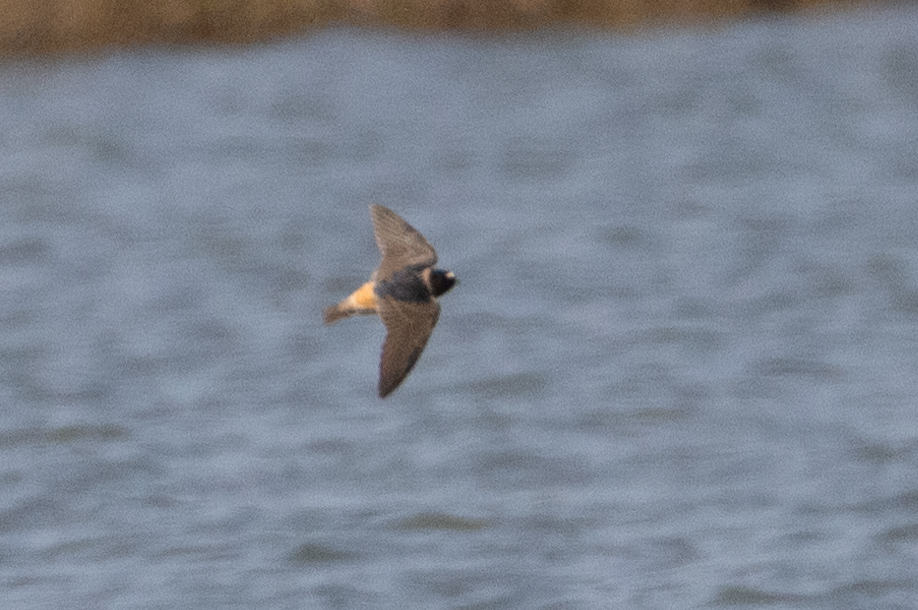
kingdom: Animalia
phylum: Chordata
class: Aves
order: Passeriformes
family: Hirundinidae
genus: Petrochelidon
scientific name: Petrochelidon pyrrhonota
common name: American cliff swallow
